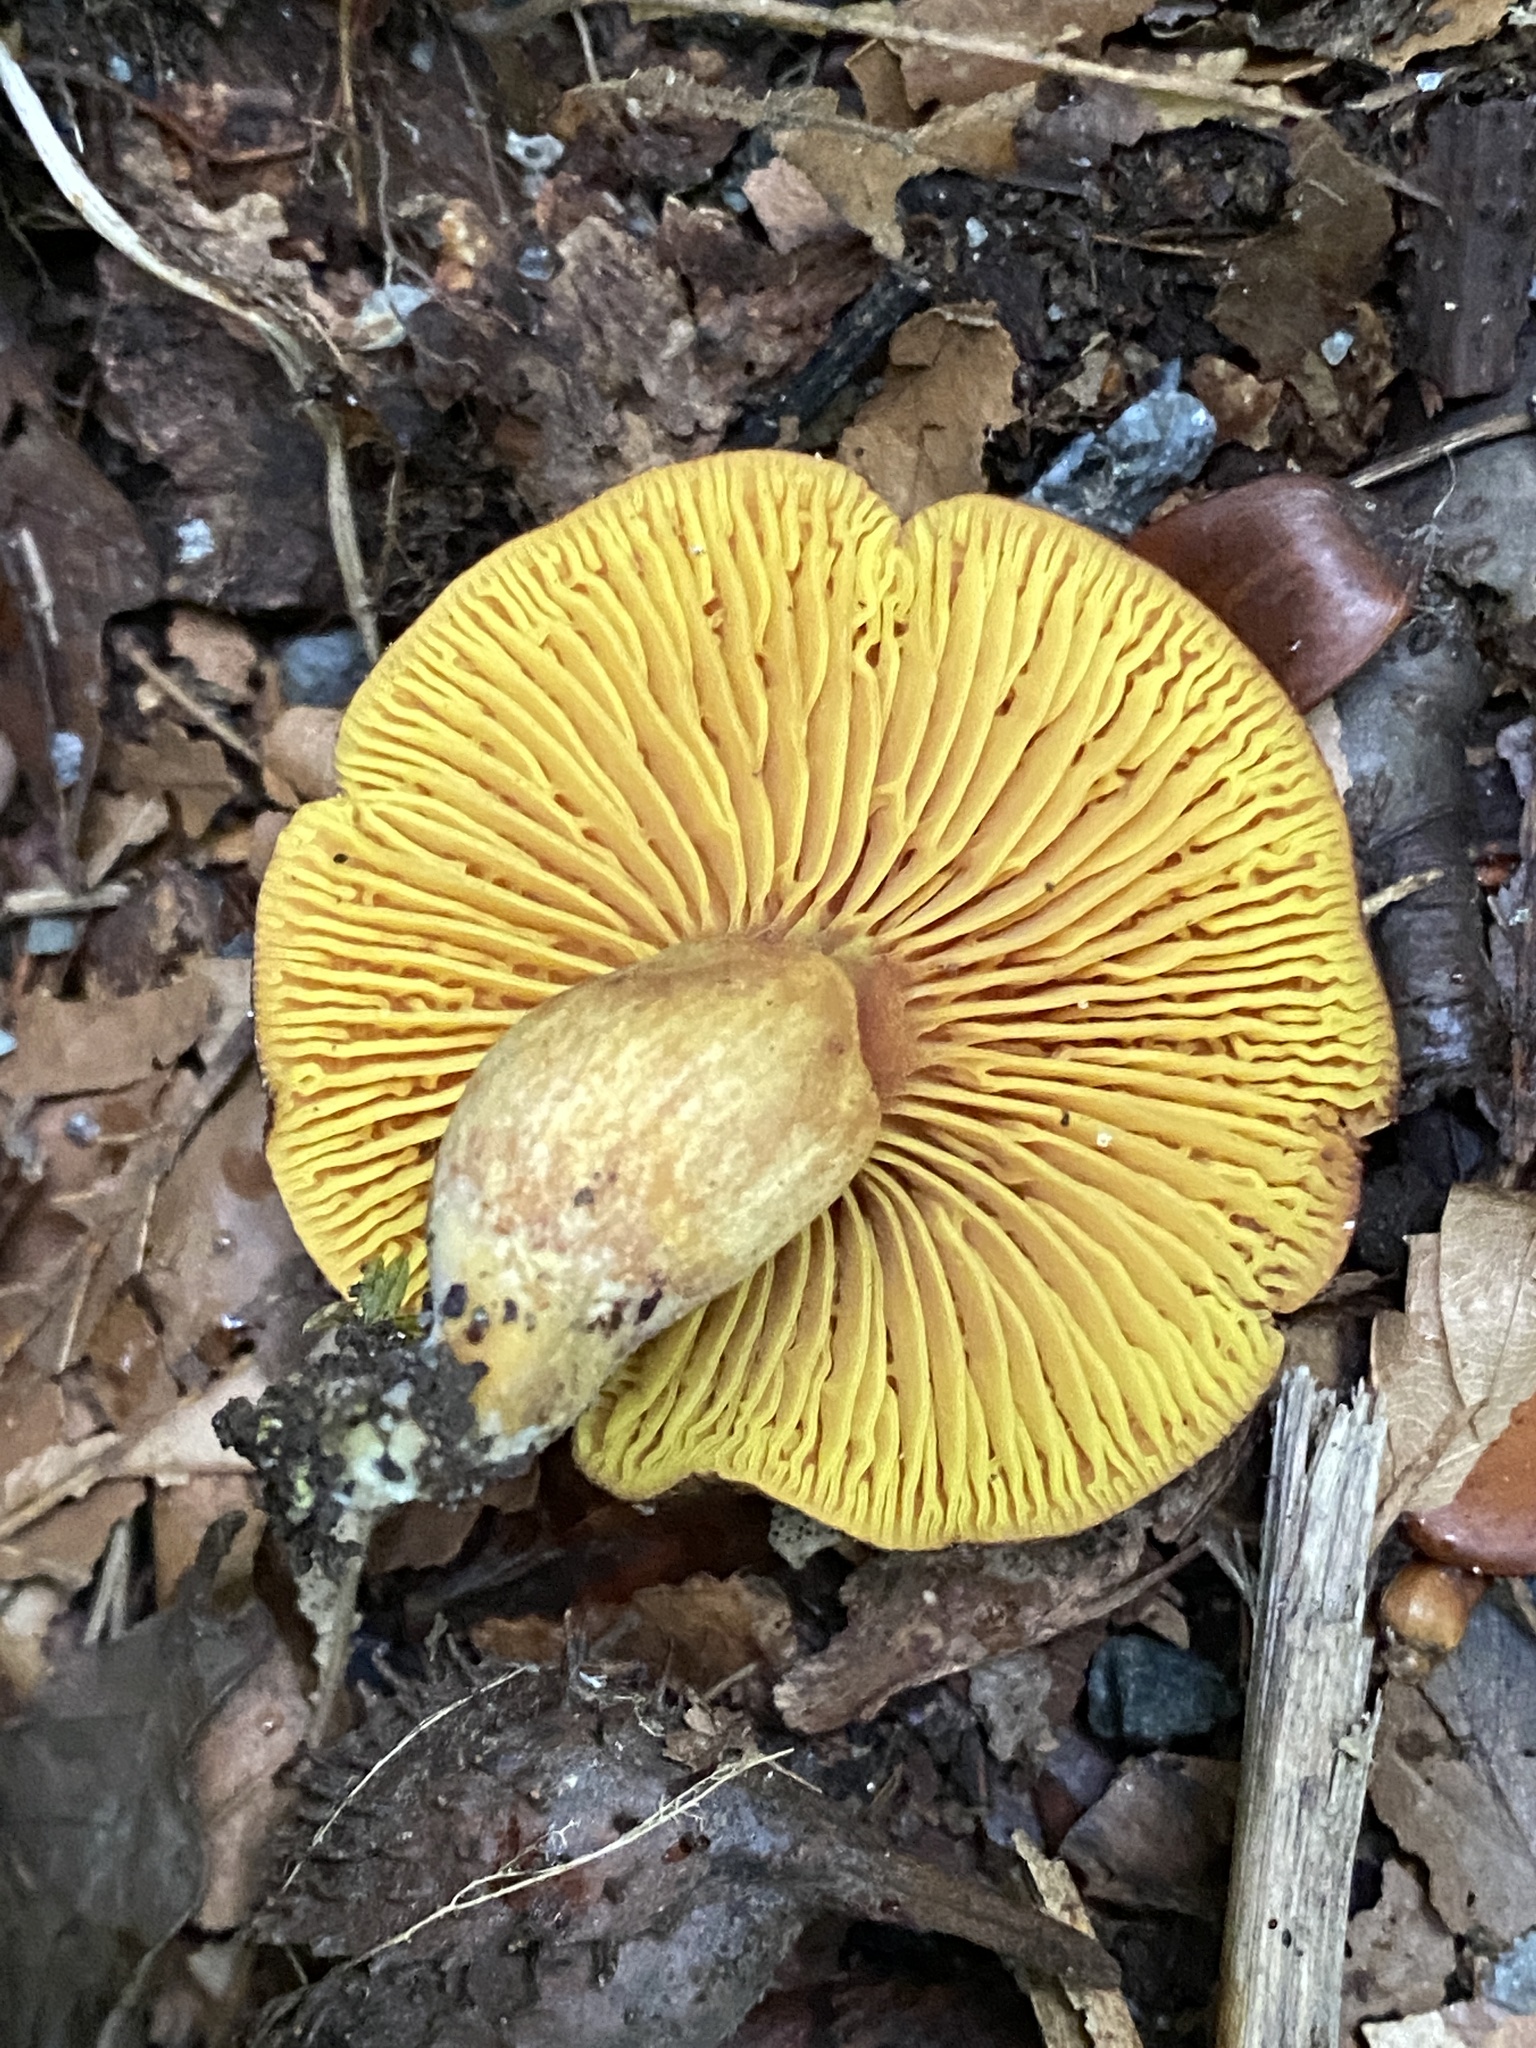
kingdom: Fungi
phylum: Basidiomycota
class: Agaricomycetes
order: Boletales
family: Boletaceae
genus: Phylloporus
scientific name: Phylloporus pelletieri
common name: Golden gilled bolete
